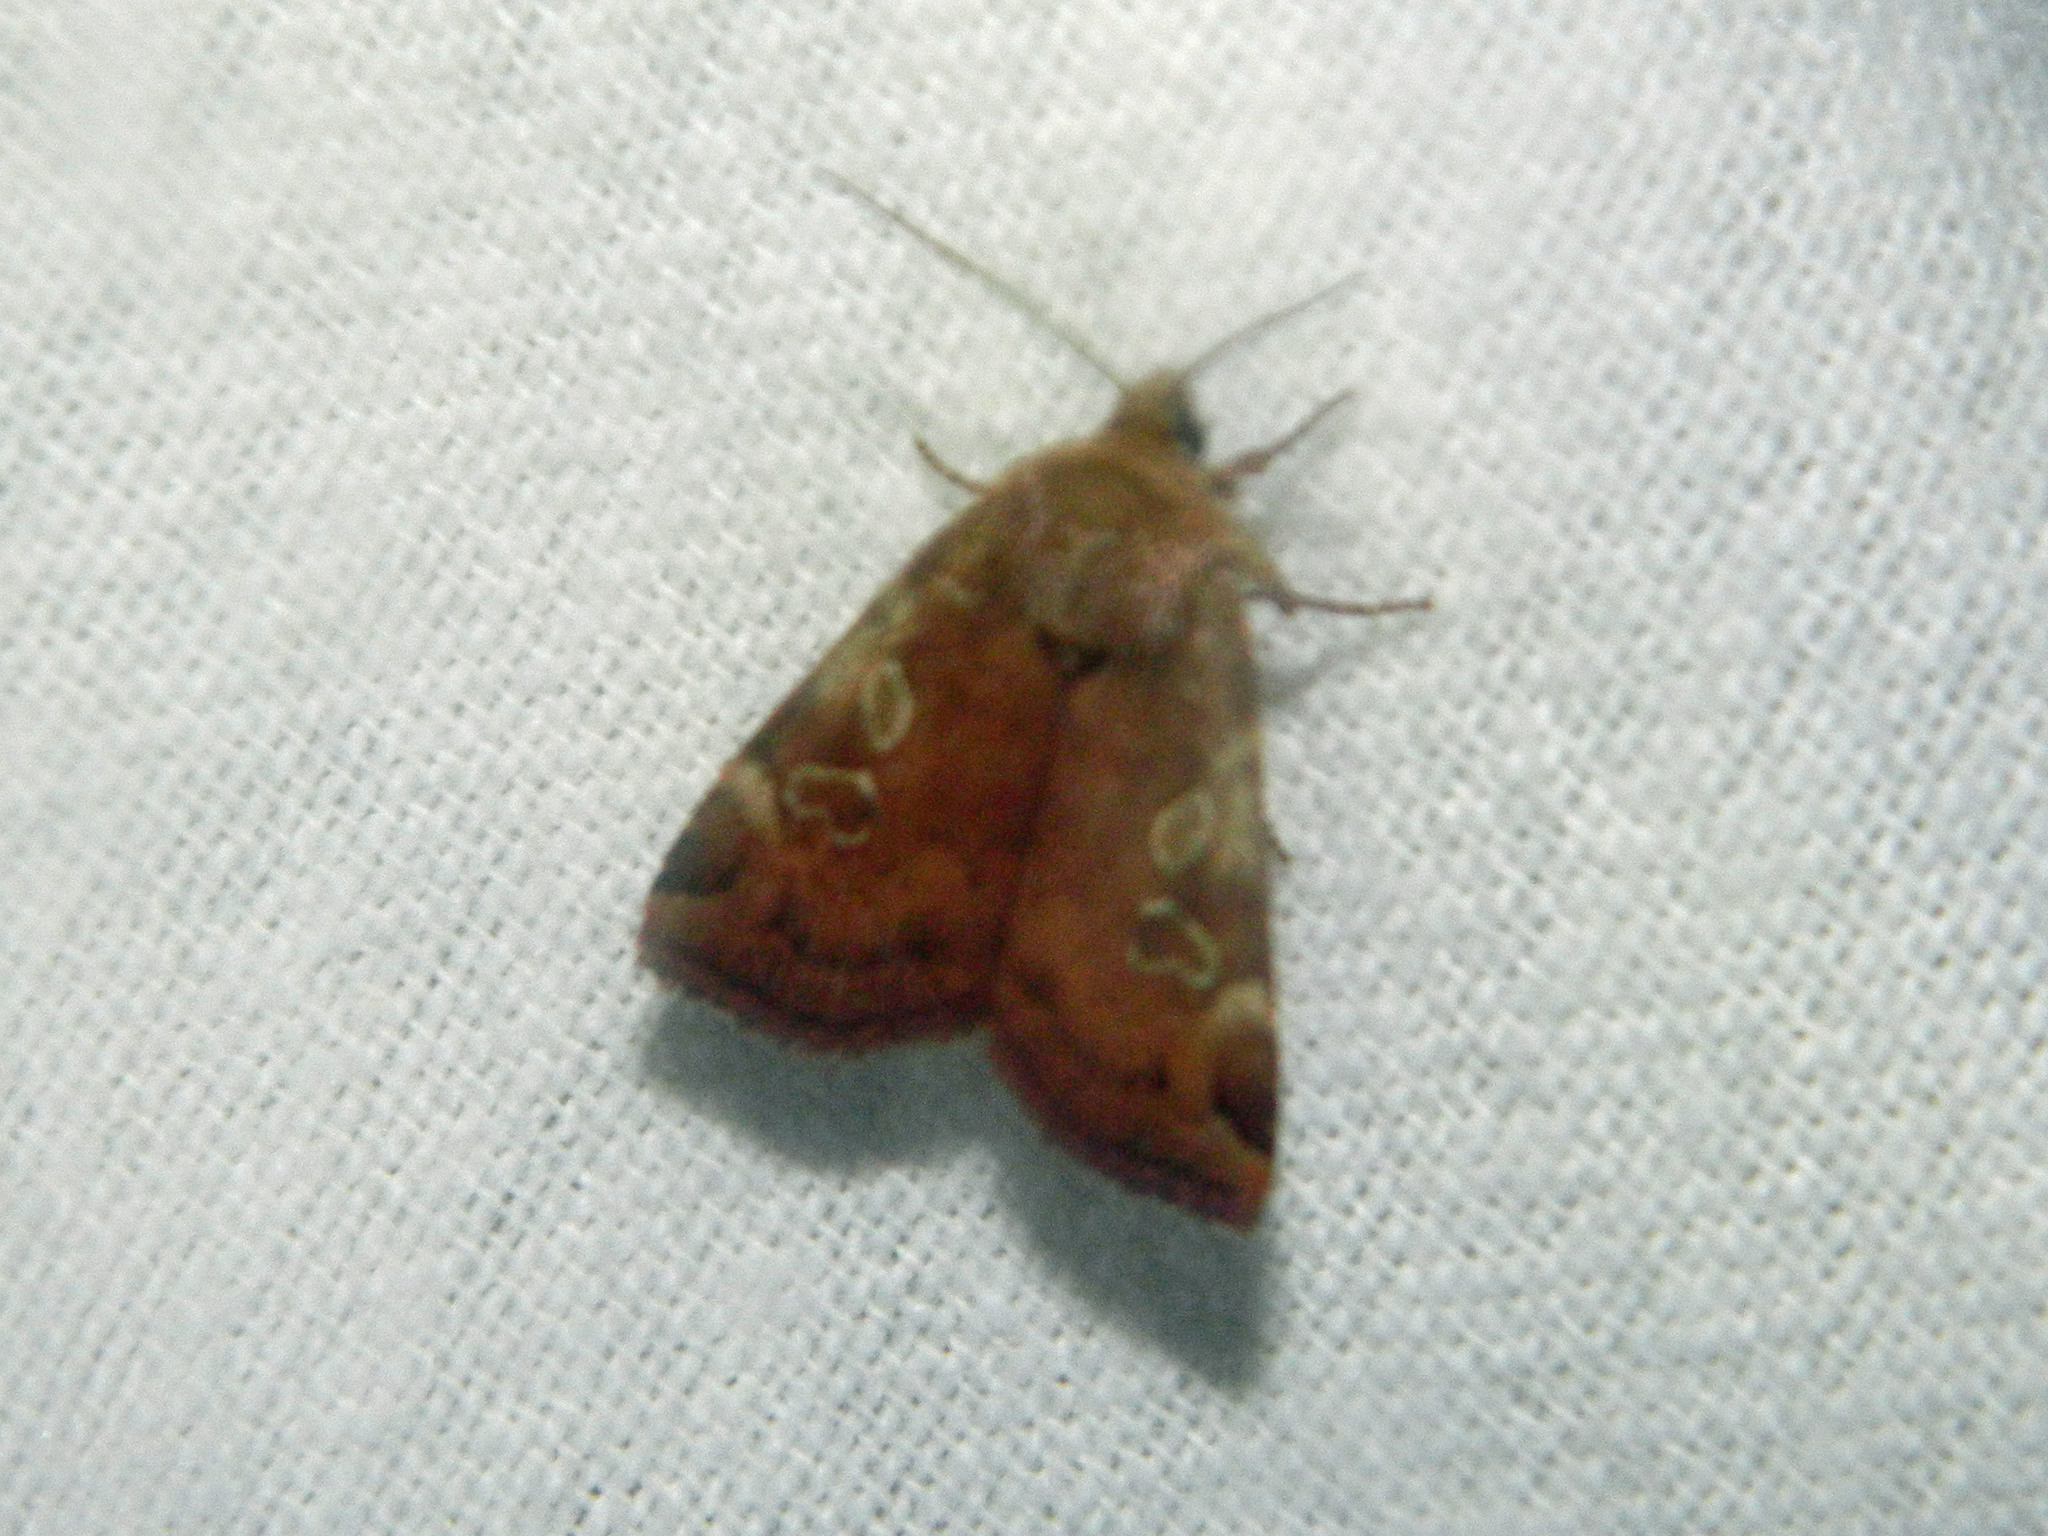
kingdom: Animalia
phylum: Arthropoda
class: Insecta
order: Lepidoptera
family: Noctuidae
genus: Cryptocala
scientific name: Cryptocala acadiensis
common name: Catocaline dart
